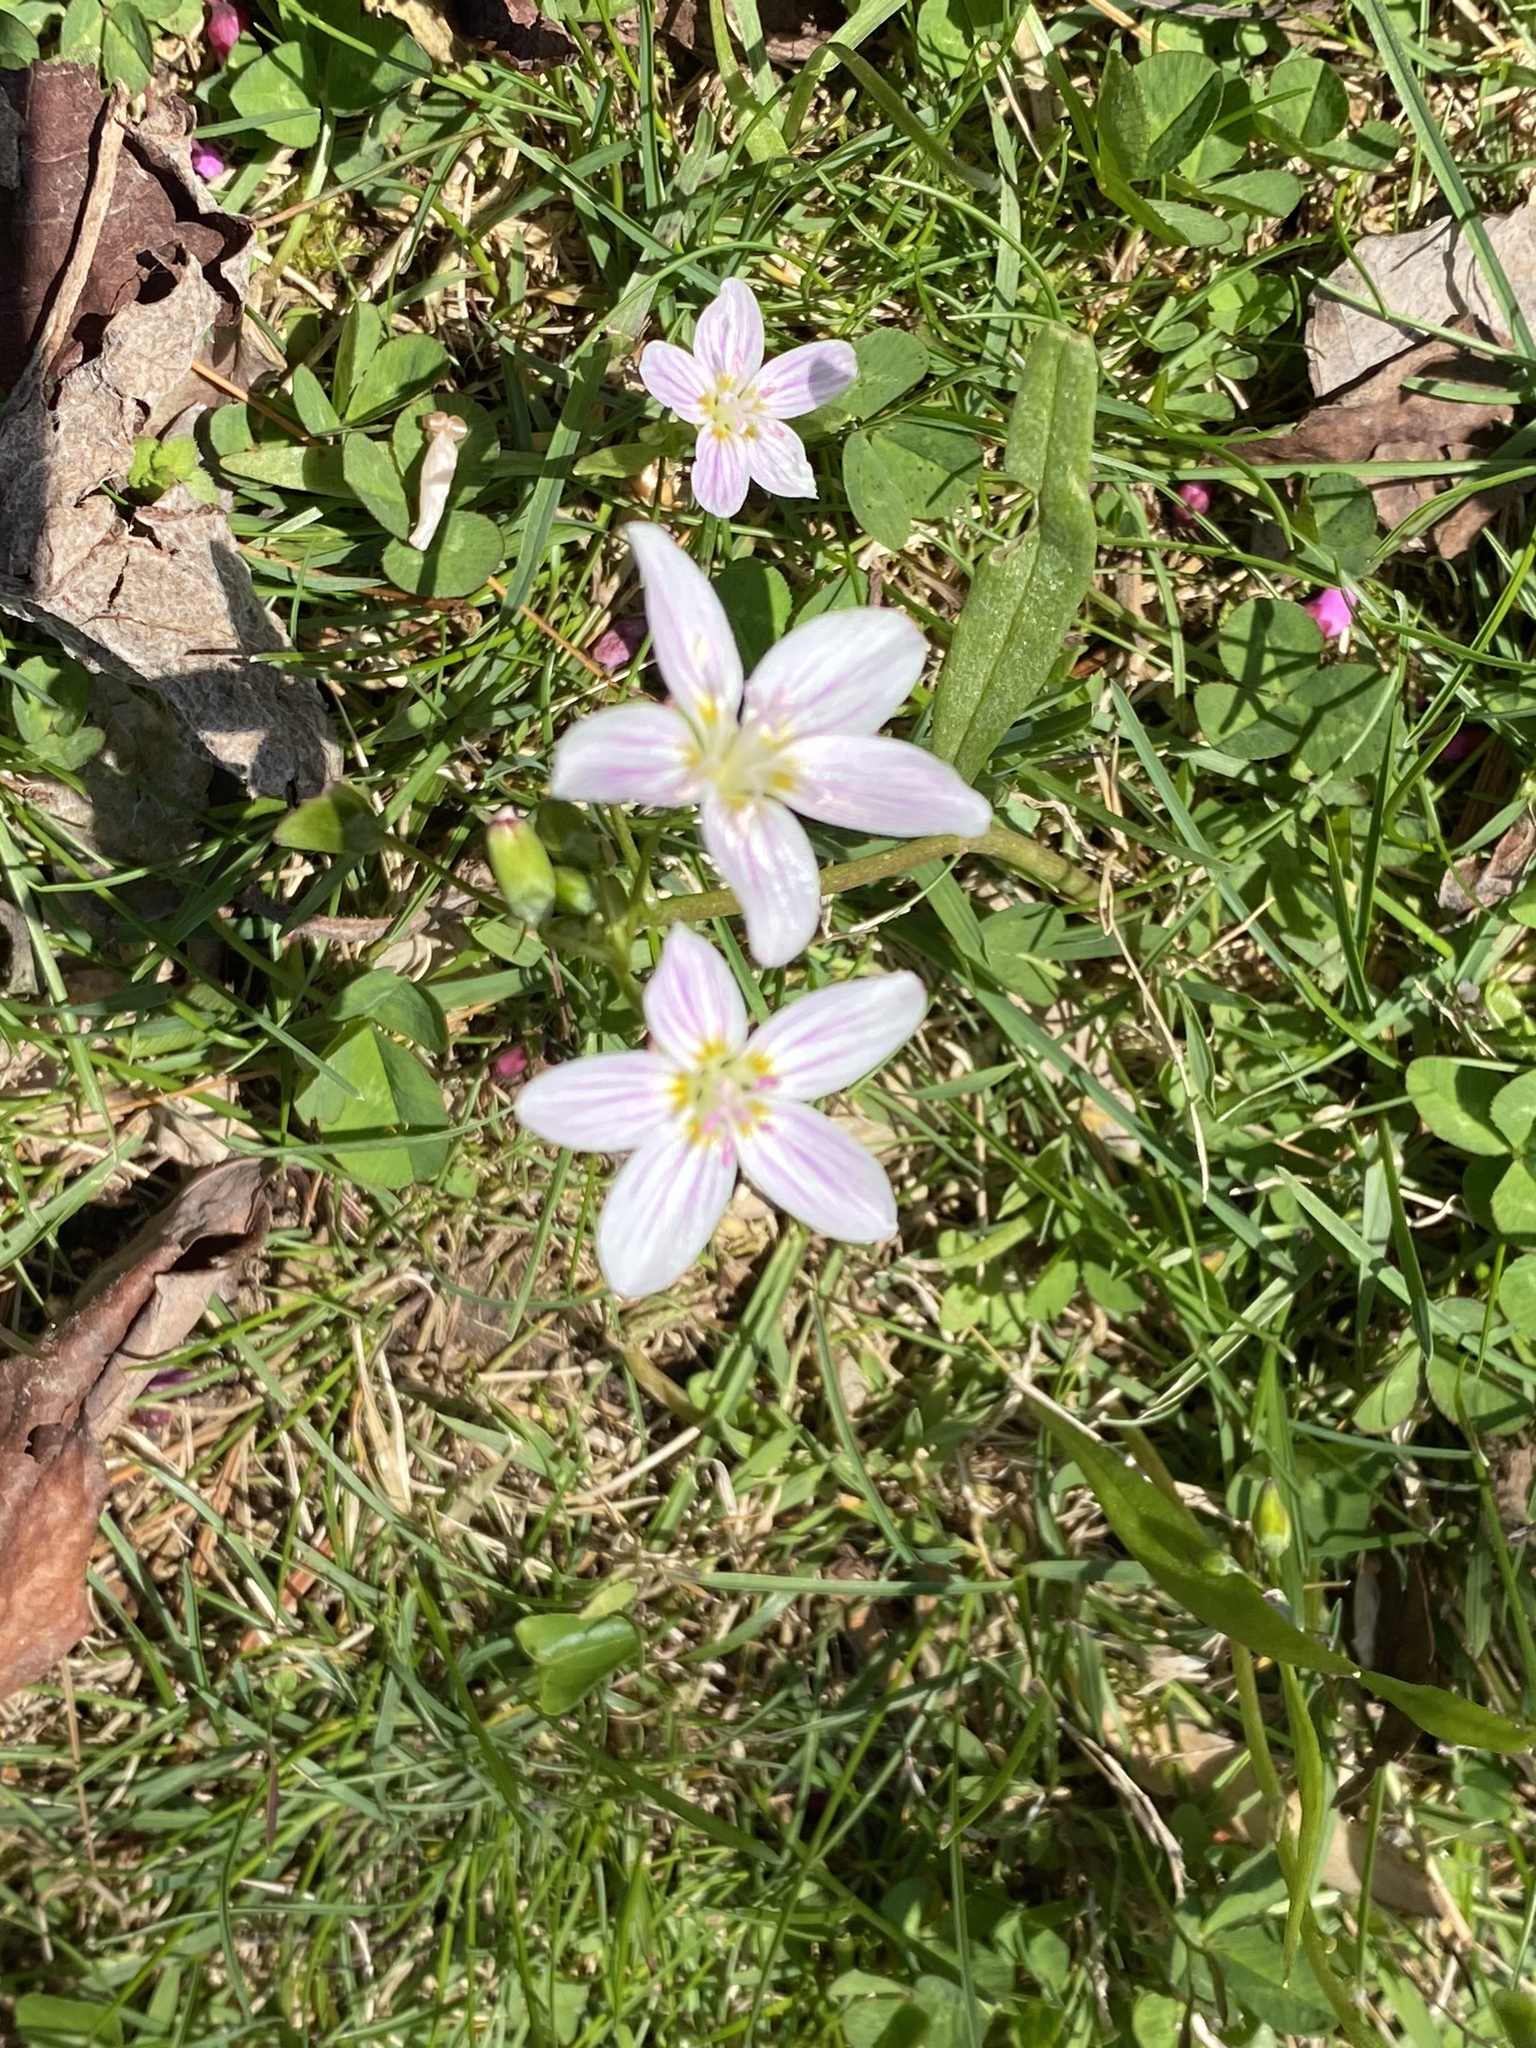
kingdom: Plantae
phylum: Tracheophyta
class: Magnoliopsida
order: Caryophyllales
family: Montiaceae
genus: Claytonia
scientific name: Claytonia virginica
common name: Virginia springbeauty
